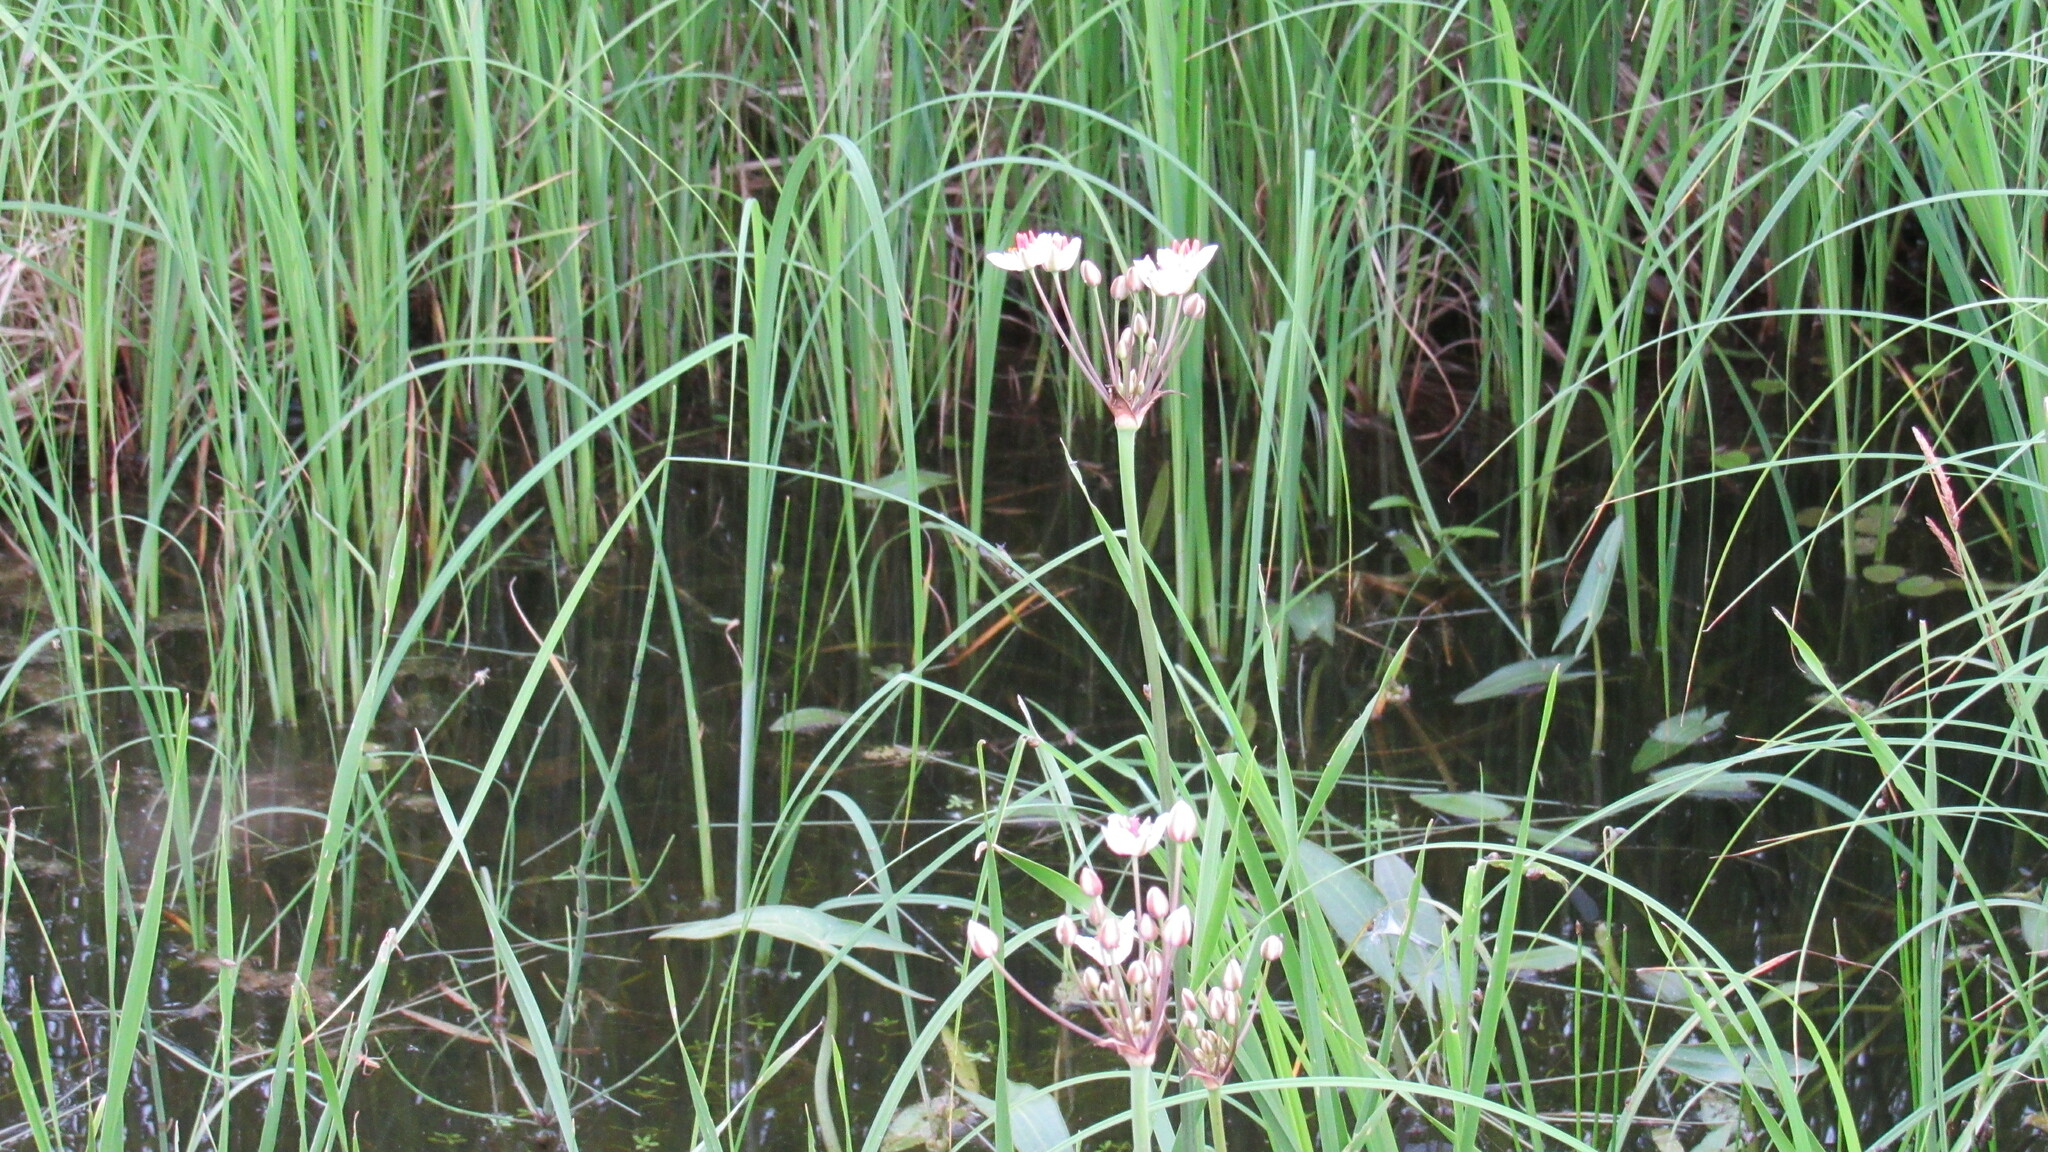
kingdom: Plantae
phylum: Tracheophyta
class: Liliopsida
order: Alismatales
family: Butomaceae
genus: Butomus
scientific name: Butomus umbellatus
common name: Flowering-rush
